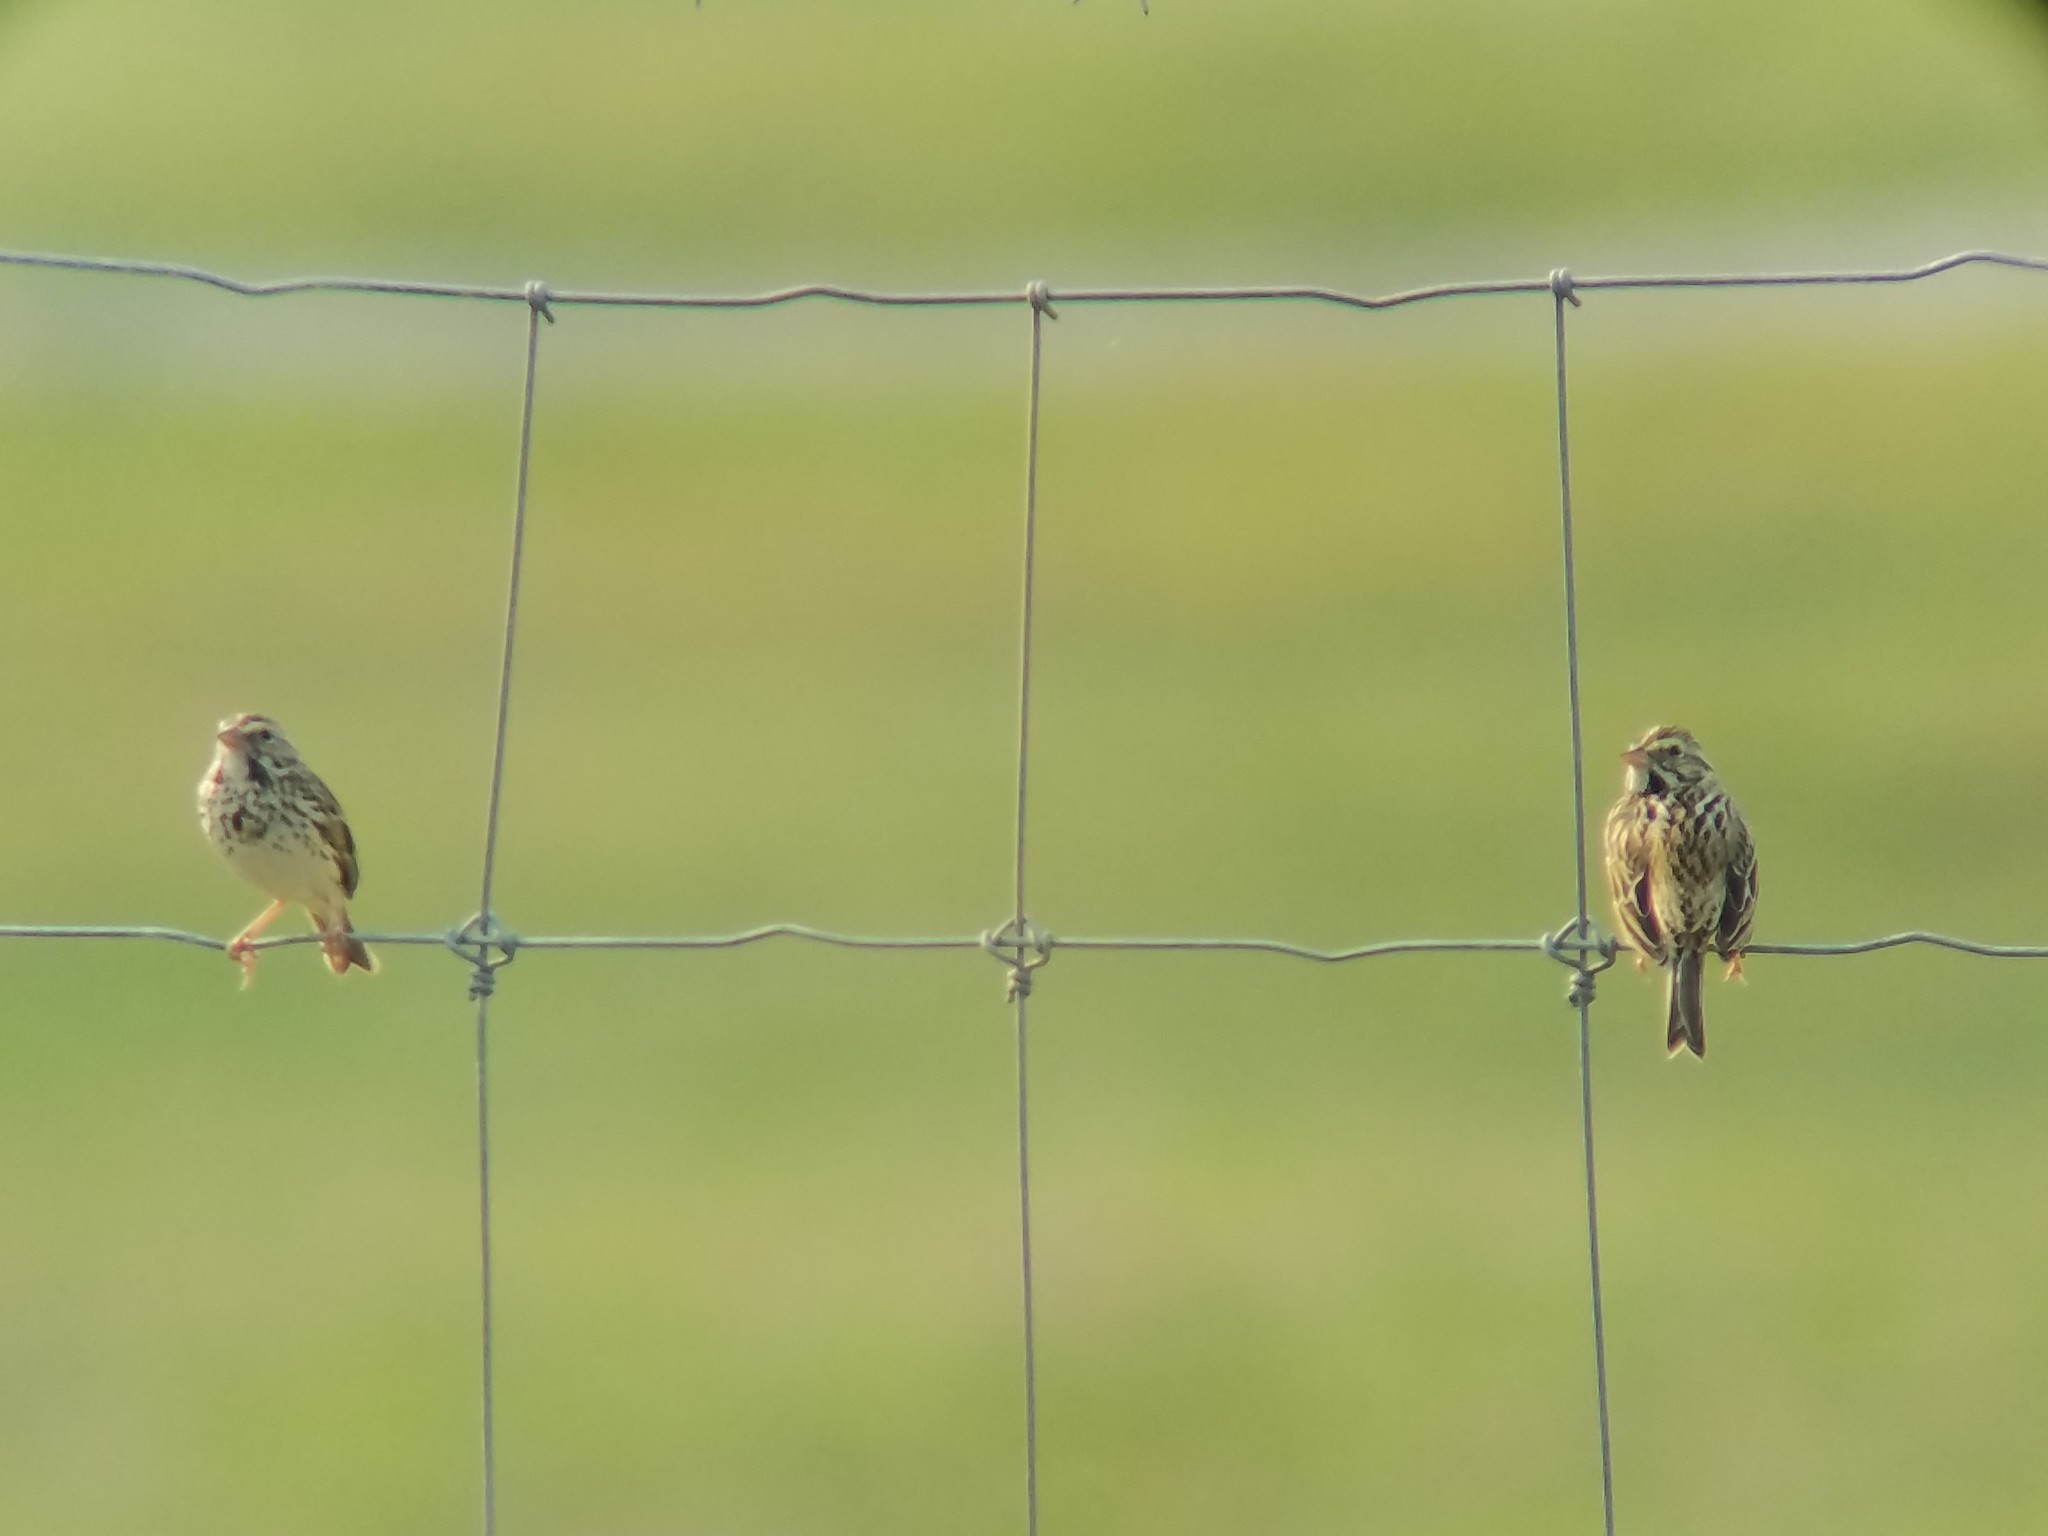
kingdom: Animalia
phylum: Chordata
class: Aves
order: Passeriformes
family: Passerellidae
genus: Passerculus
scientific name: Passerculus sandwichensis
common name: Savannah sparrow
